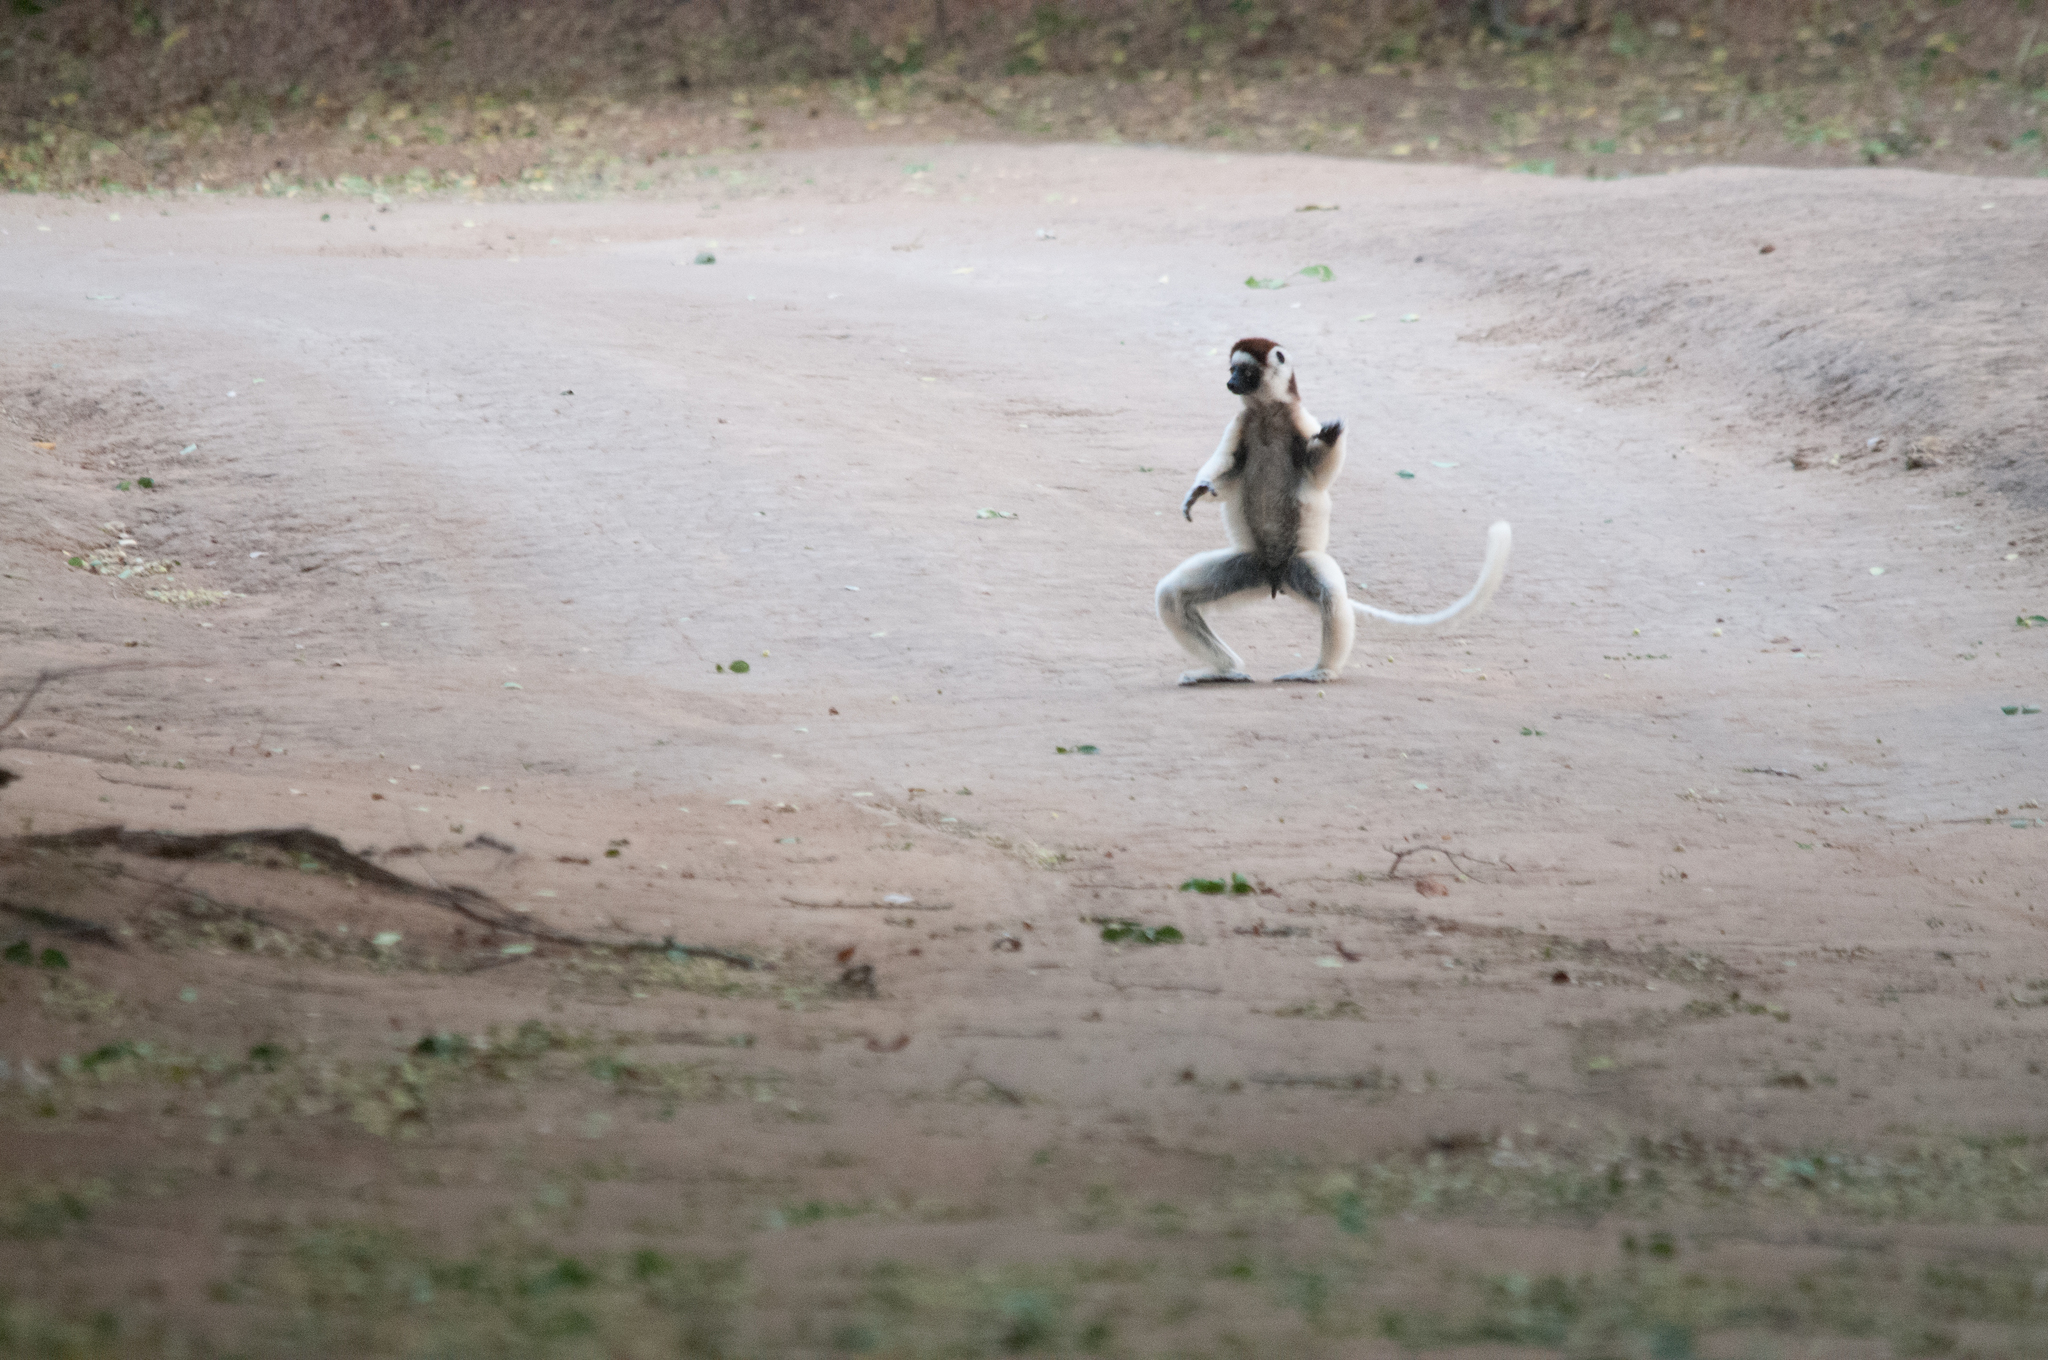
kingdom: Animalia
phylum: Chordata
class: Mammalia
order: Primates
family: Indriidae
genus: Propithecus
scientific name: Propithecus verreauxi
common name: Verreaux's sifaka
